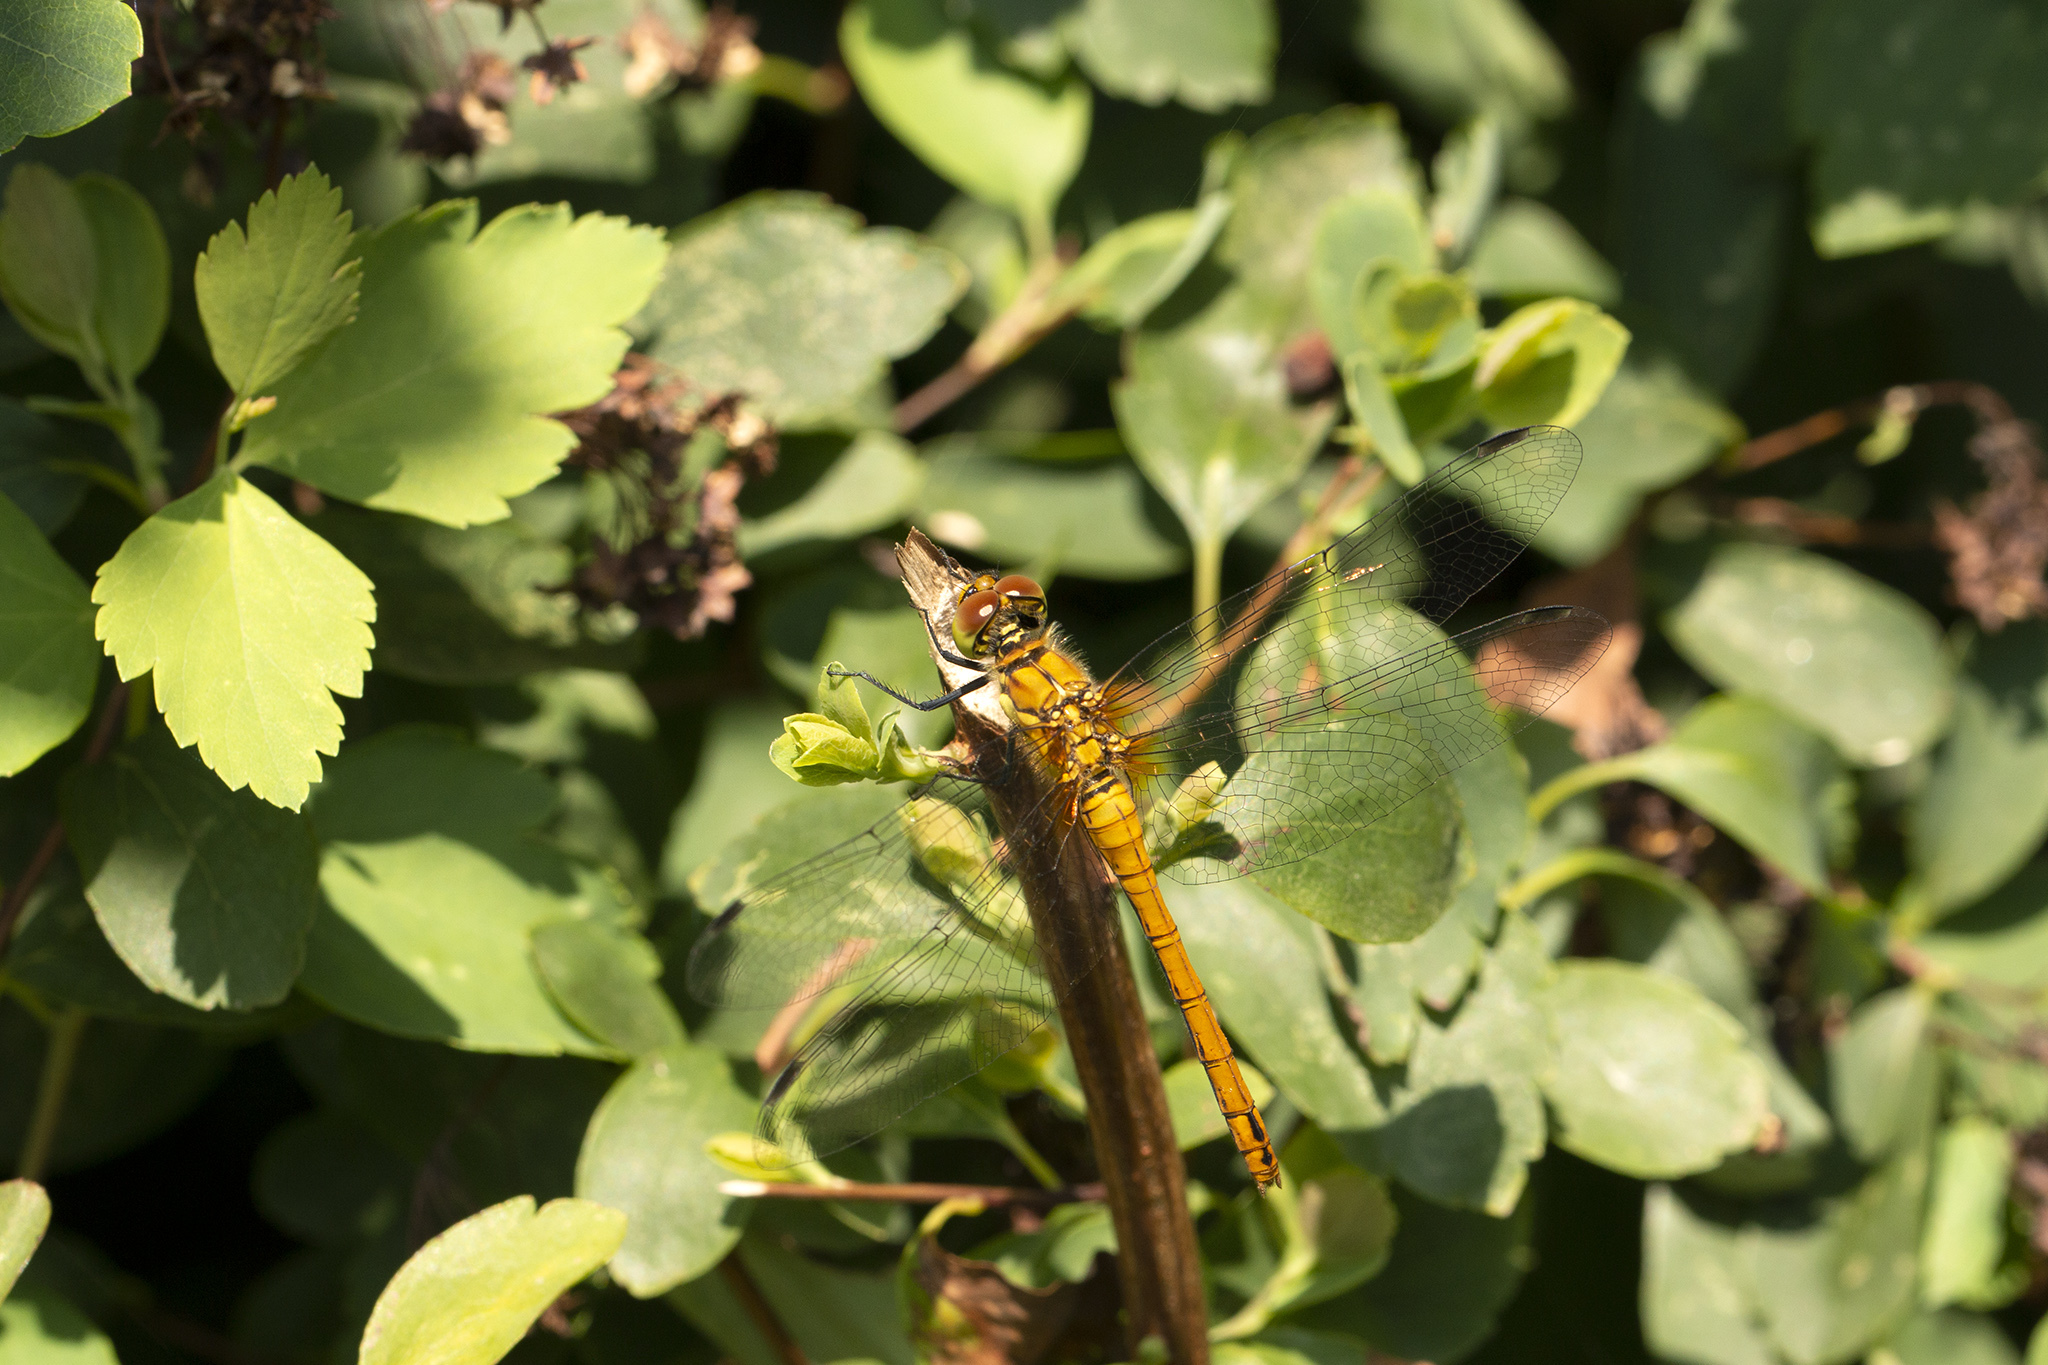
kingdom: Animalia
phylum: Arthropoda
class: Insecta
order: Odonata
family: Libellulidae
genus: Sympetrum
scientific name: Sympetrum sanguineum
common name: Ruddy darter
